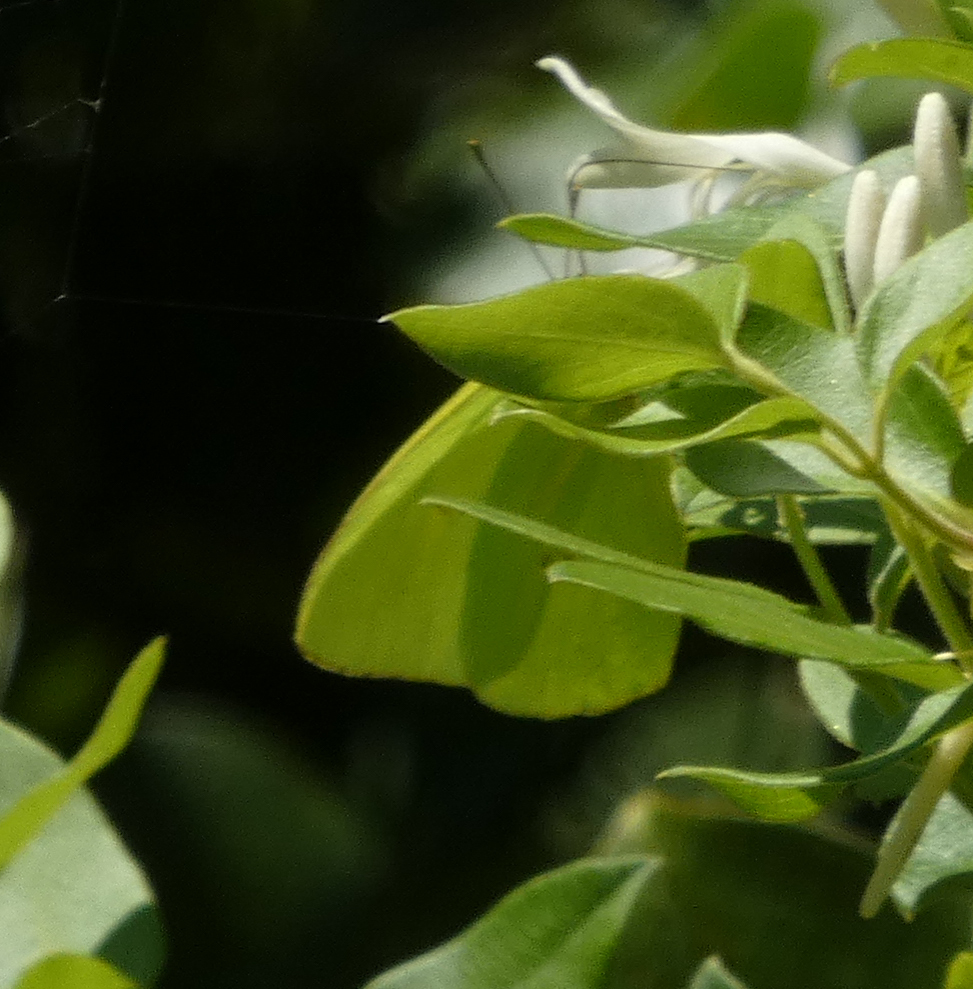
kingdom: Animalia
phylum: Arthropoda
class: Insecta
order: Lepidoptera
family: Pieridae
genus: Phoebis
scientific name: Phoebis sennae
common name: Cloudless sulphur
